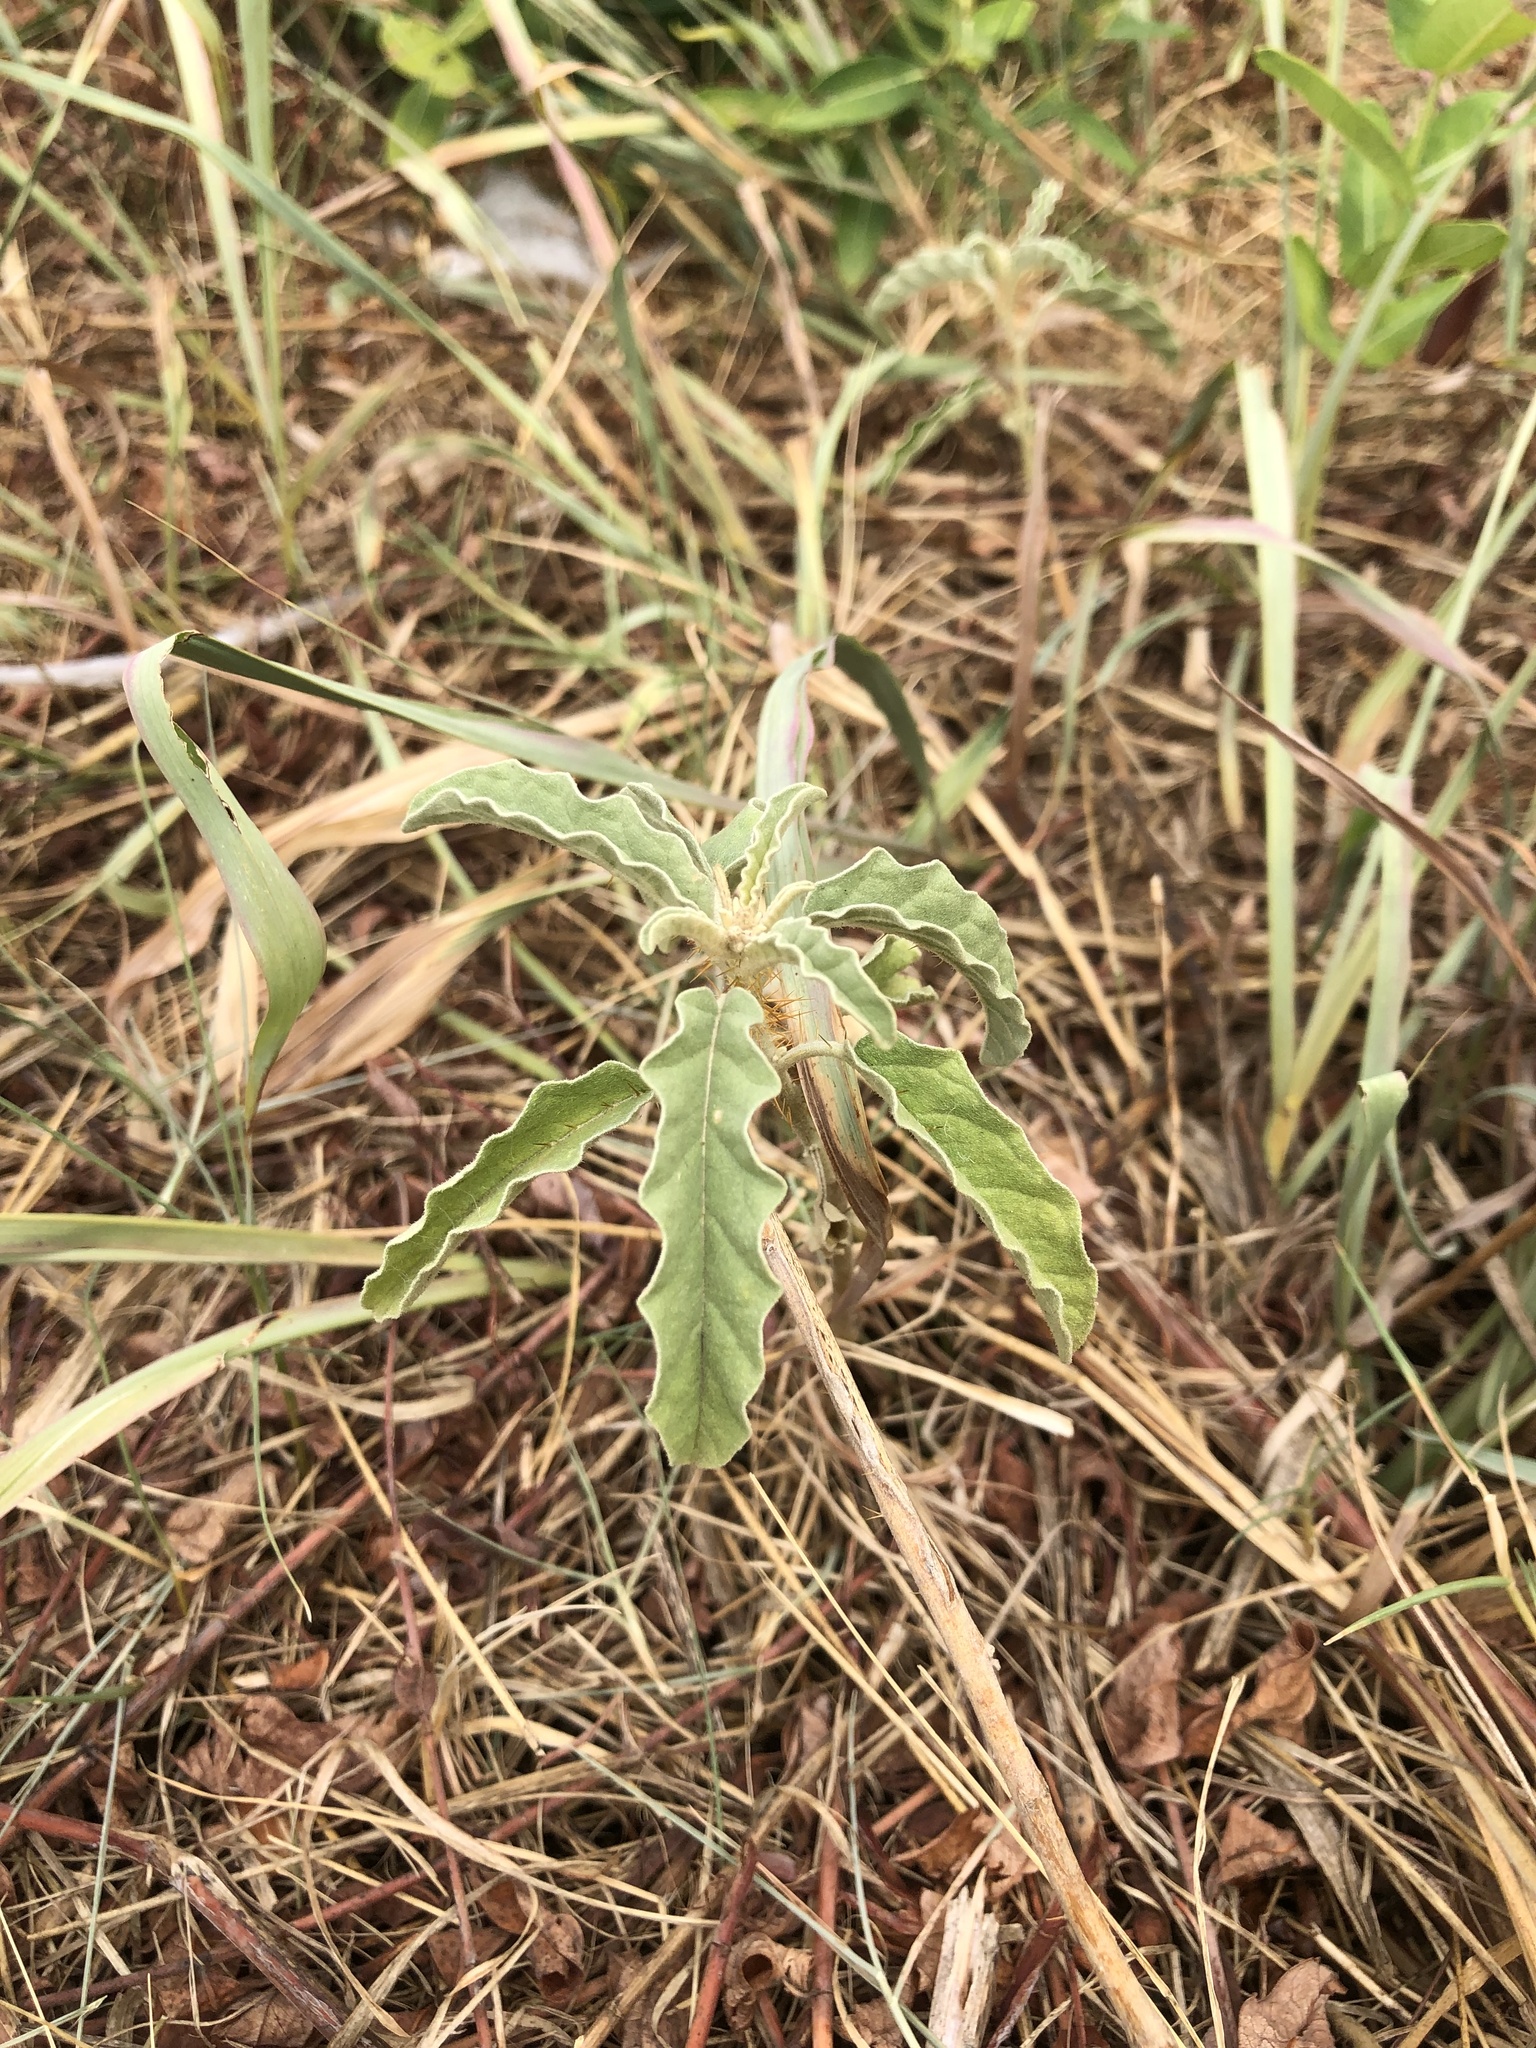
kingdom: Plantae
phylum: Tracheophyta
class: Magnoliopsida
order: Solanales
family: Solanaceae
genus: Solanum
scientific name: Solanum elaeagnifolium
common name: Silverleaf nightshade
